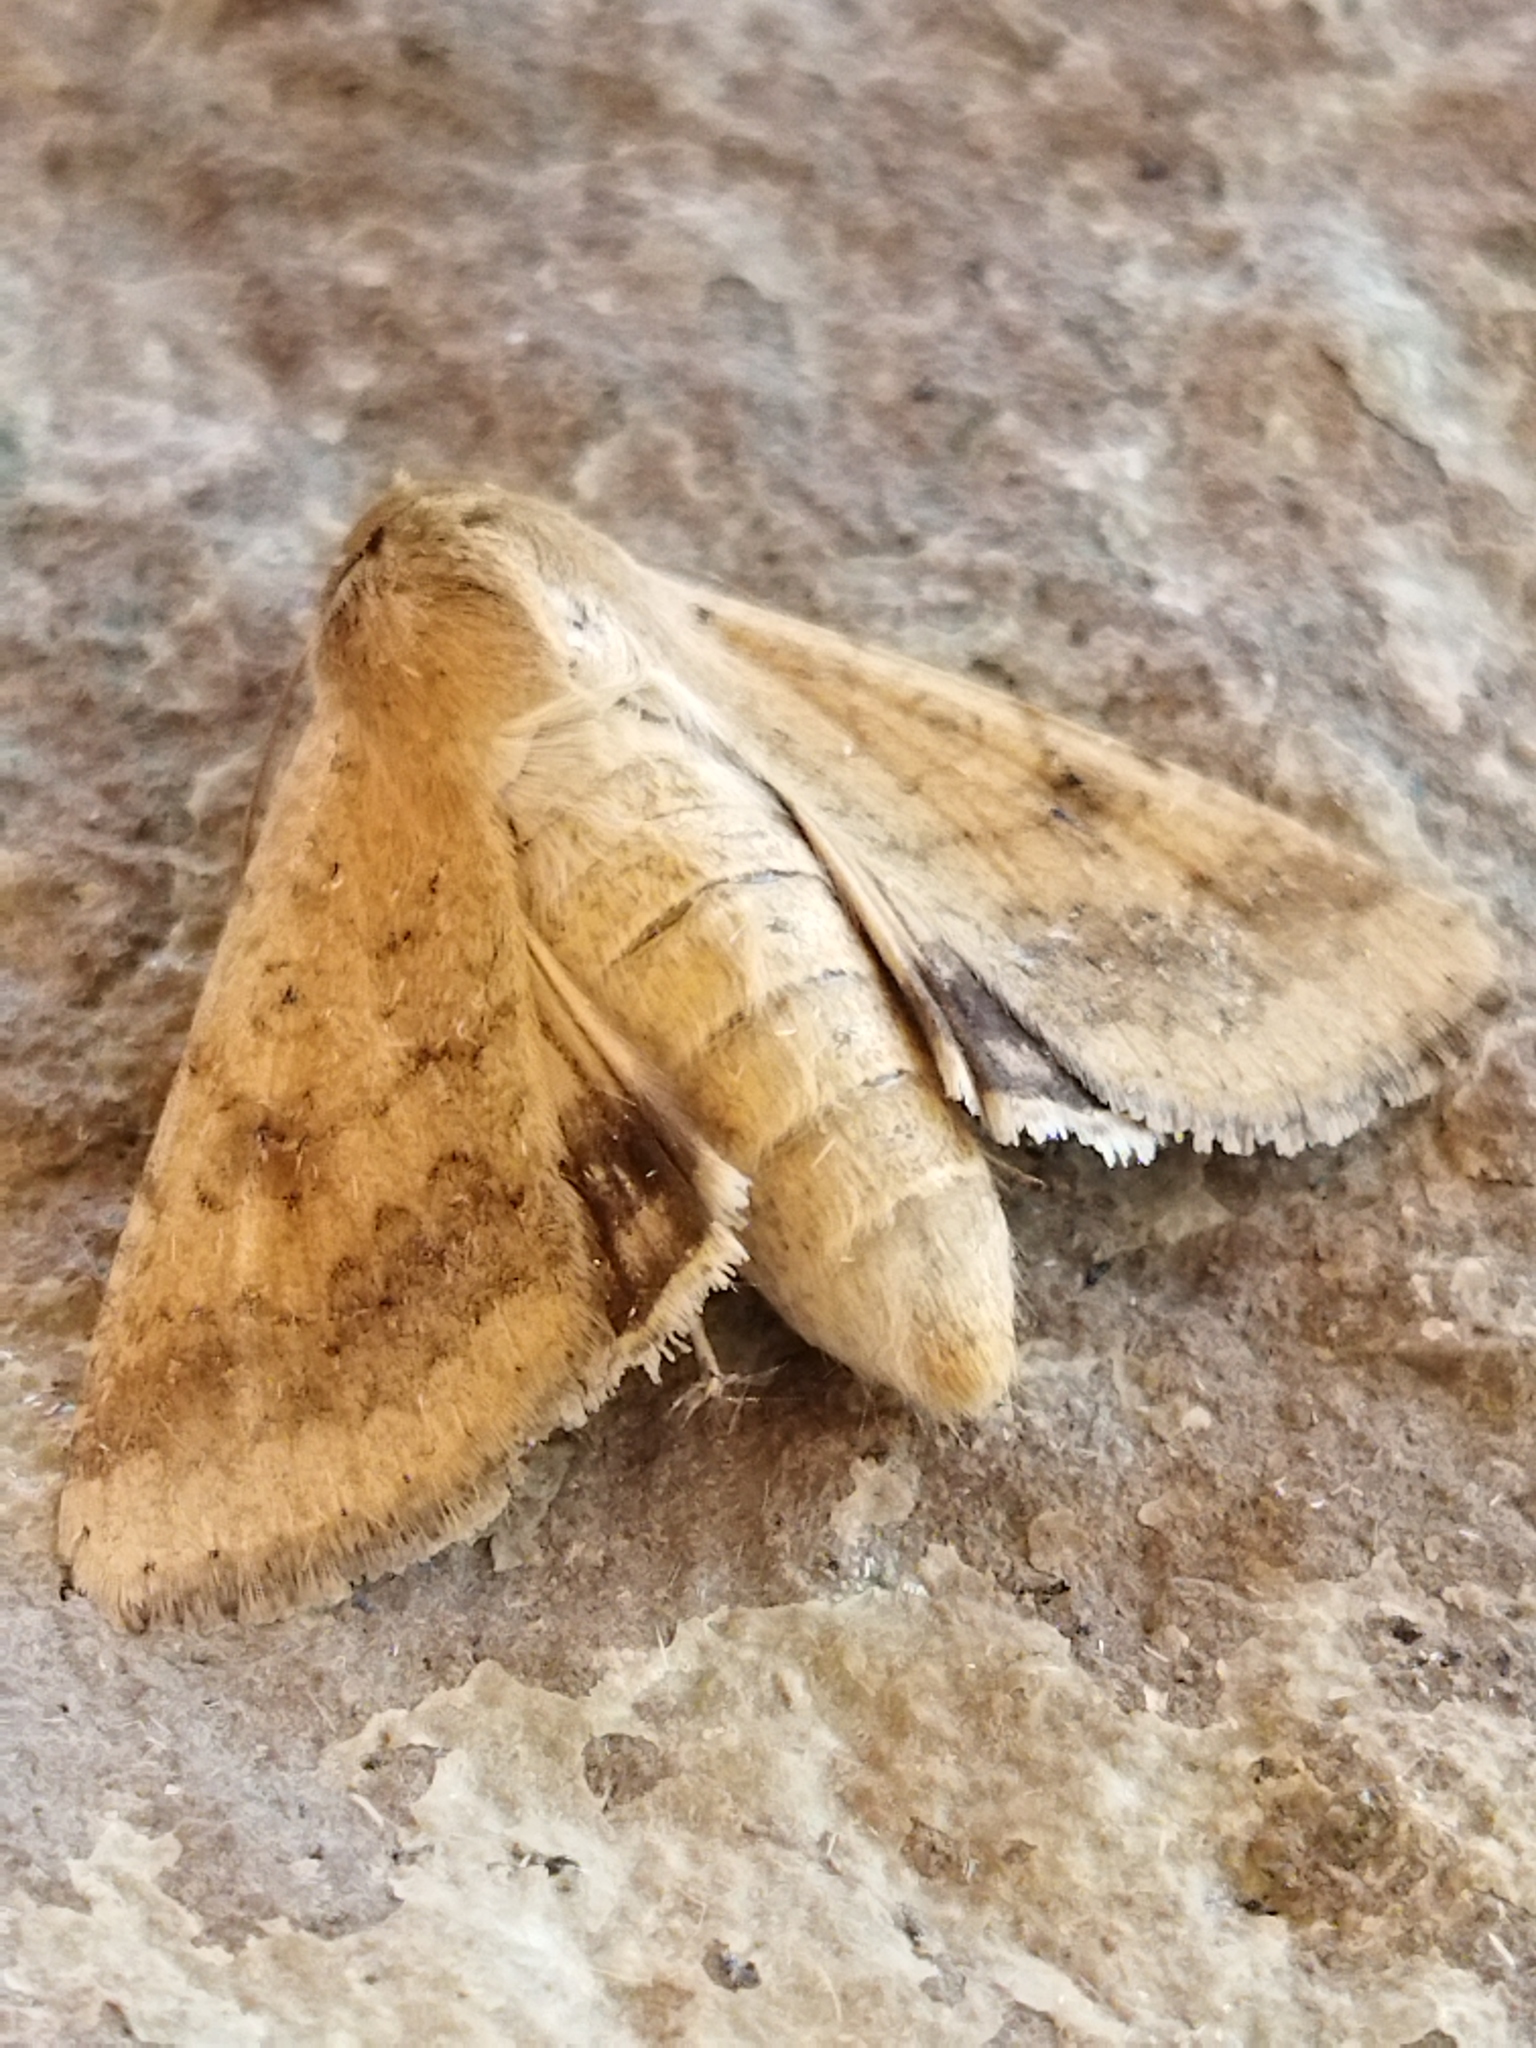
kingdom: Animalia
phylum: Arthropoda
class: Insecta
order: Lepidoptera
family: Noctuidae
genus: Helicoverpa
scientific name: Helicoverpa armigera
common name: Cotton bollworm
